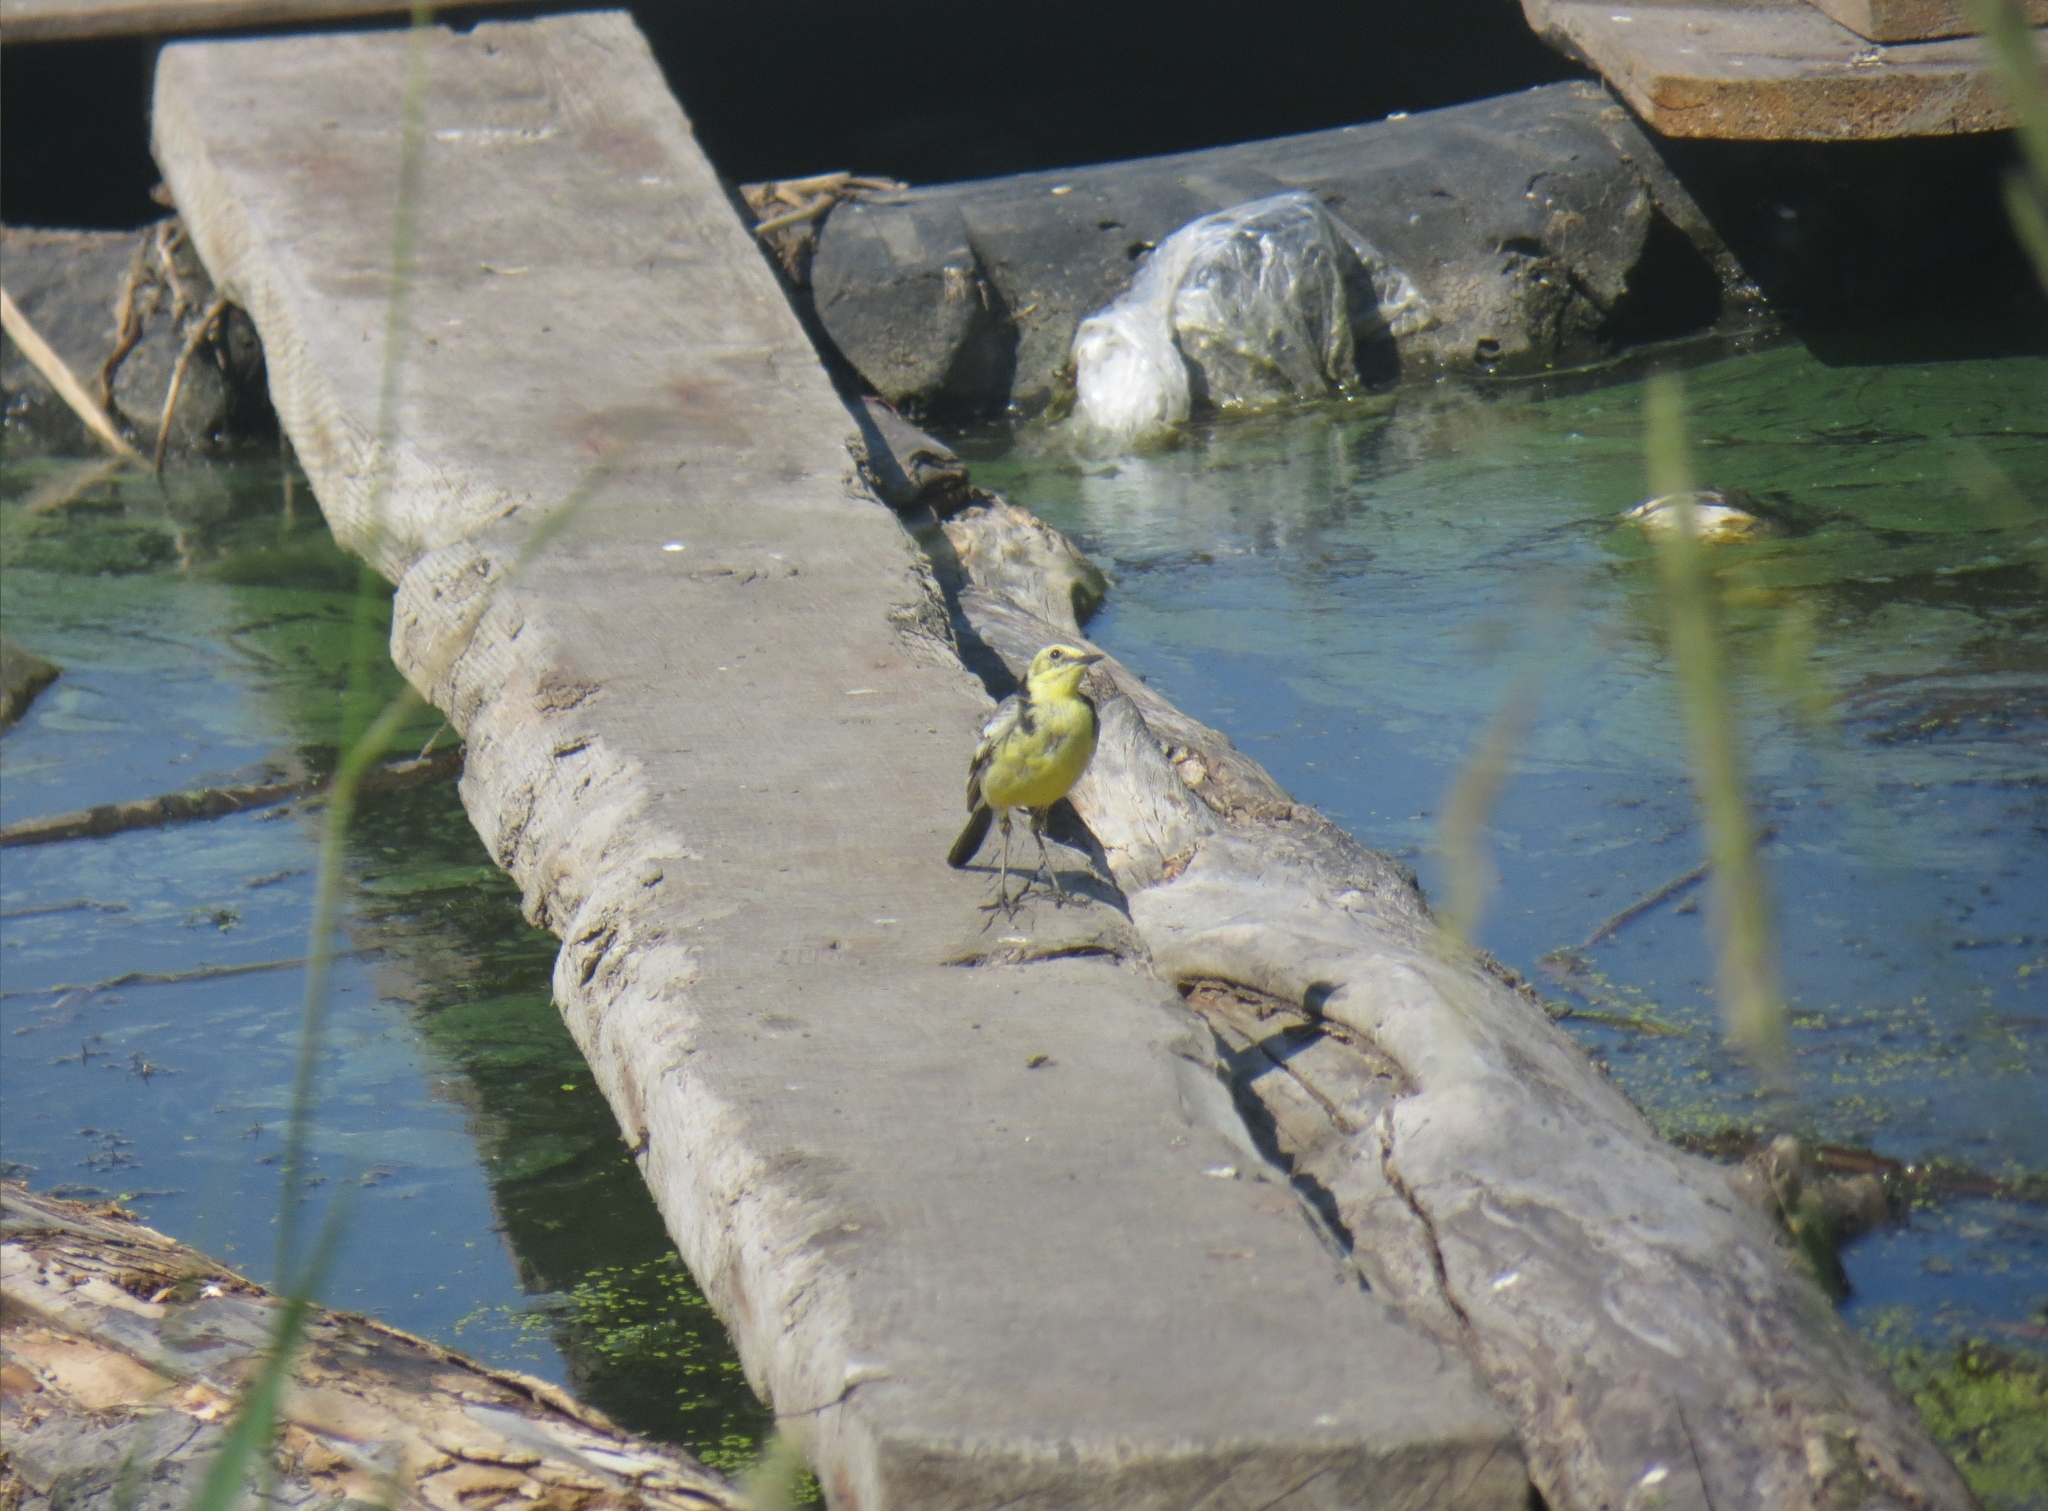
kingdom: Animalia
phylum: Chordata
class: Aves
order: Passeriformes
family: Motacillidae
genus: Motacilla
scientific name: Motacilla citreola
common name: Citrine wagtail
